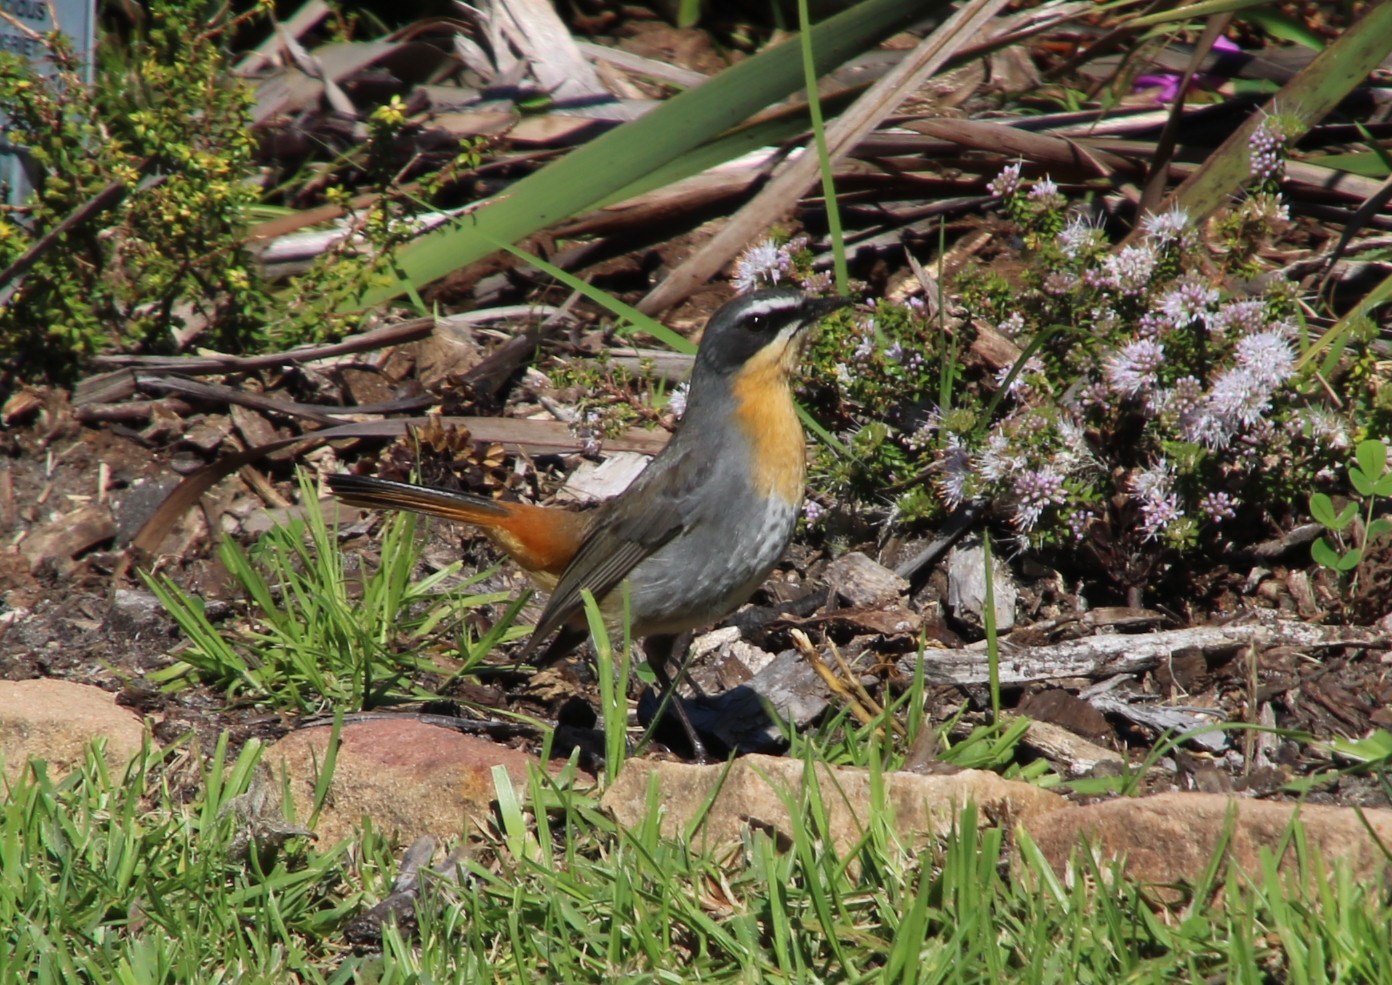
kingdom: Animalia
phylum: Chordata
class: Aves
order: Passeriformes
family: Muscicapidae
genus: Cossypha
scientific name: Cossypha caffra
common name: Cape robin-chat
